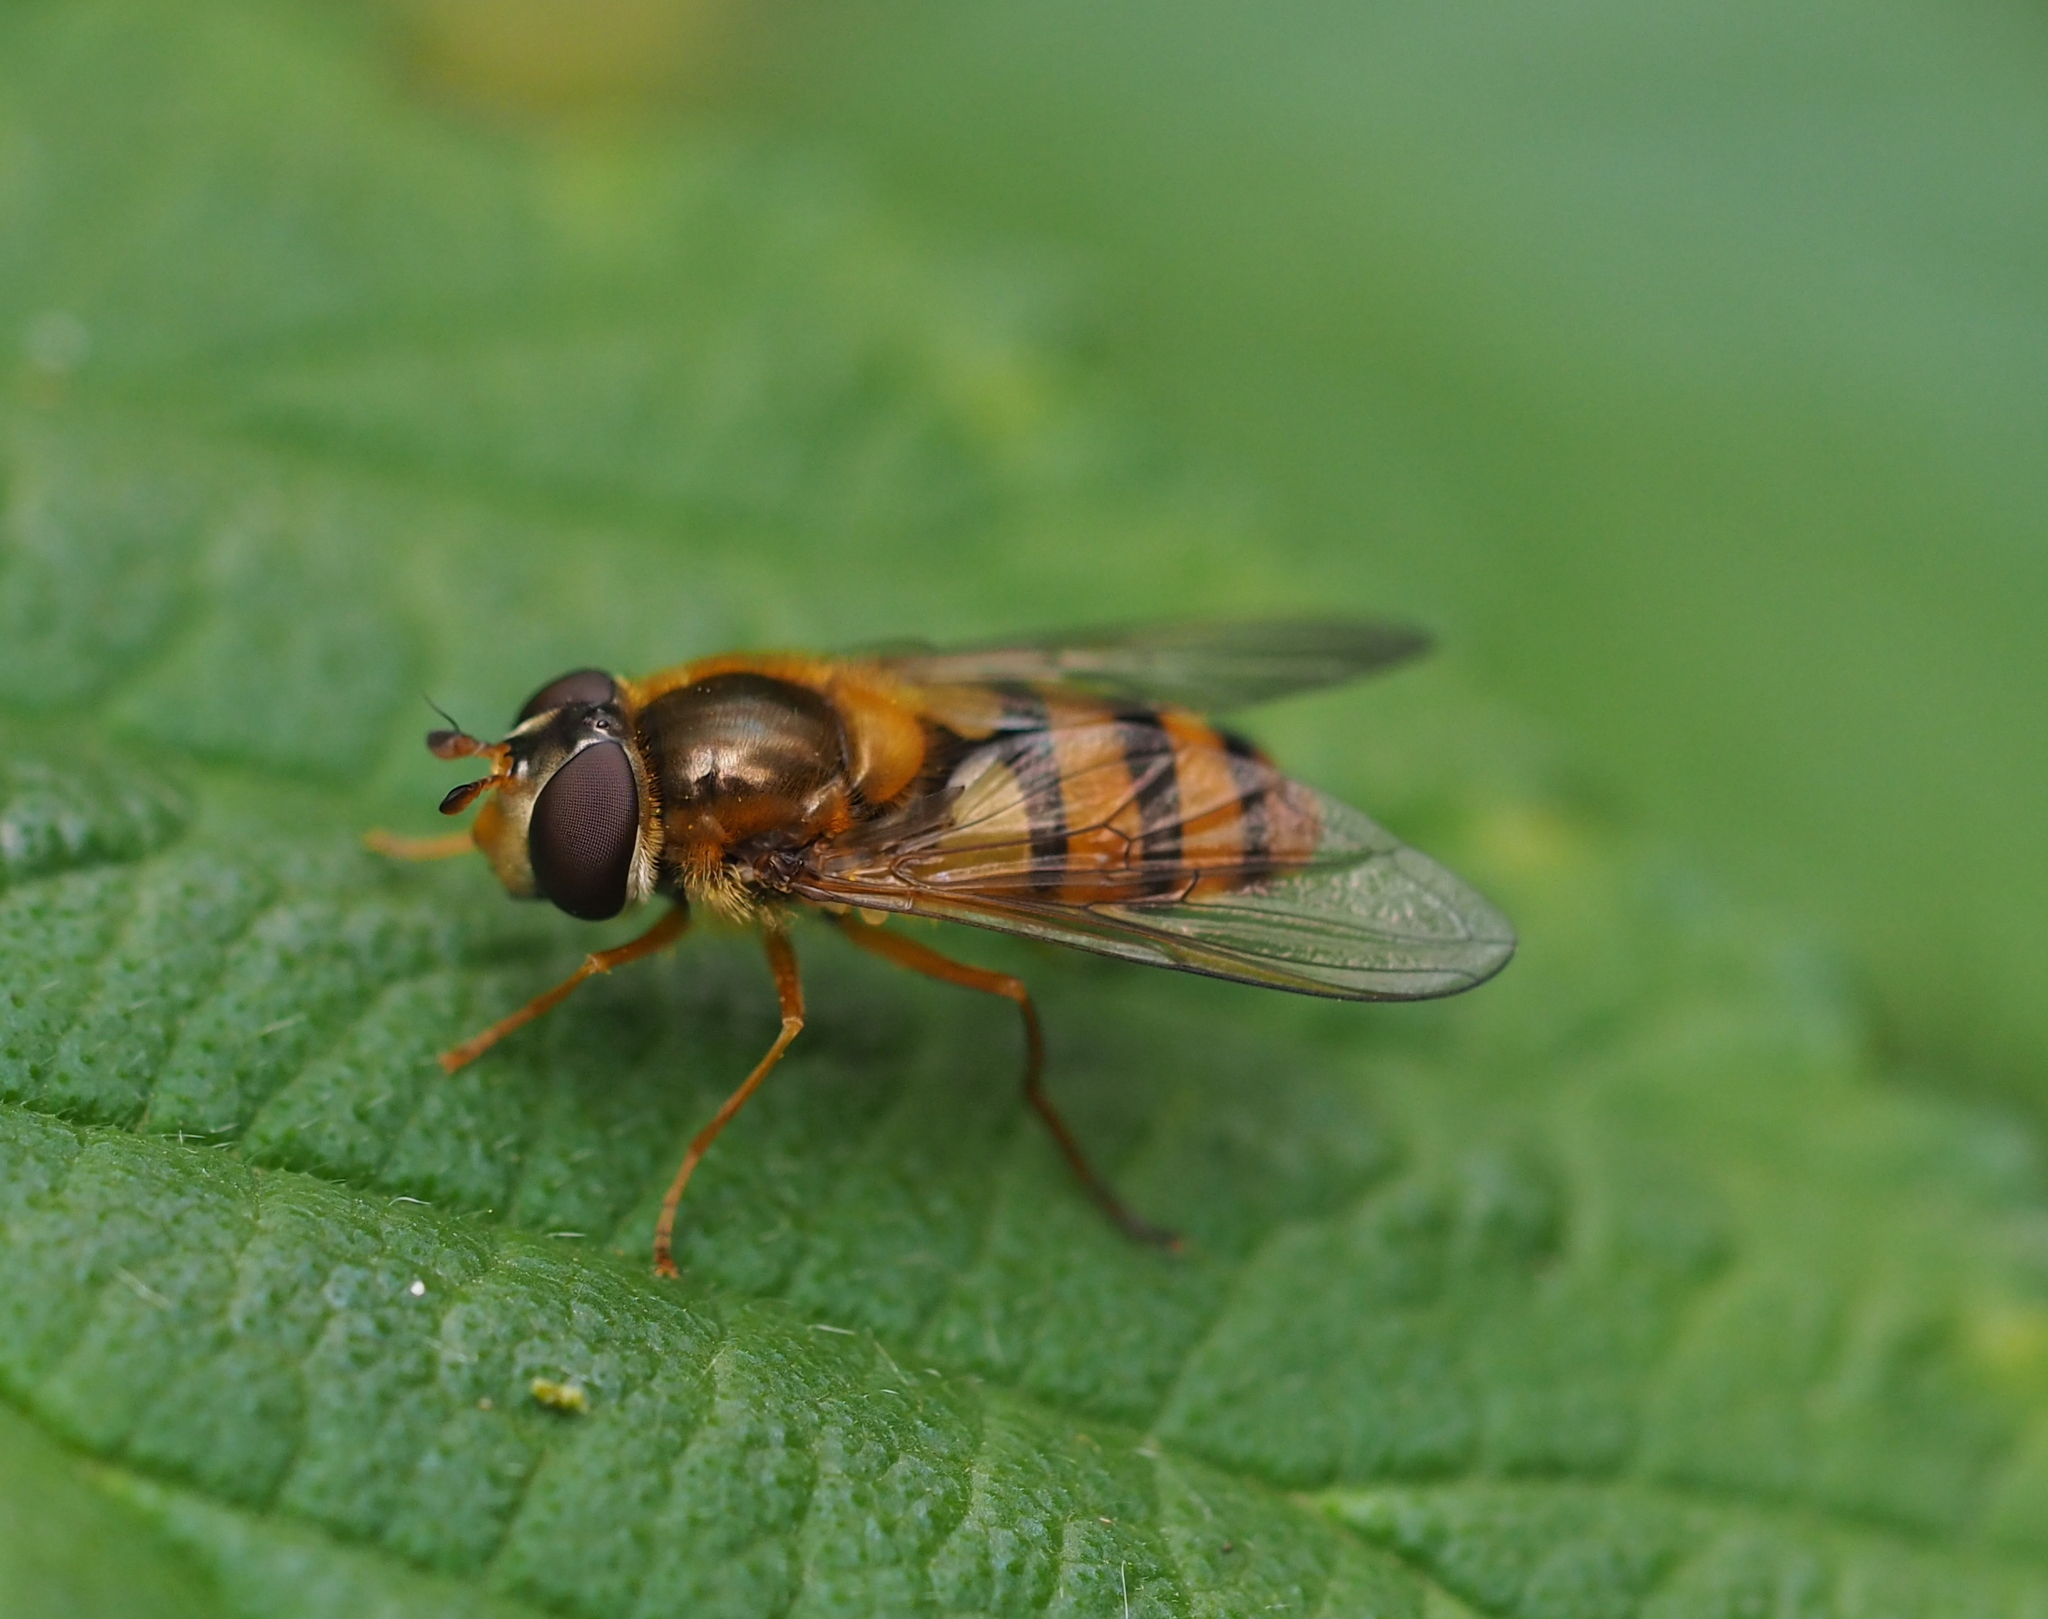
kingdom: Animalia
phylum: Arthropoda
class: Insecta
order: Diptera
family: Syrphidae
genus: Epistrophe
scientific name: Epistrophe melanostoma
